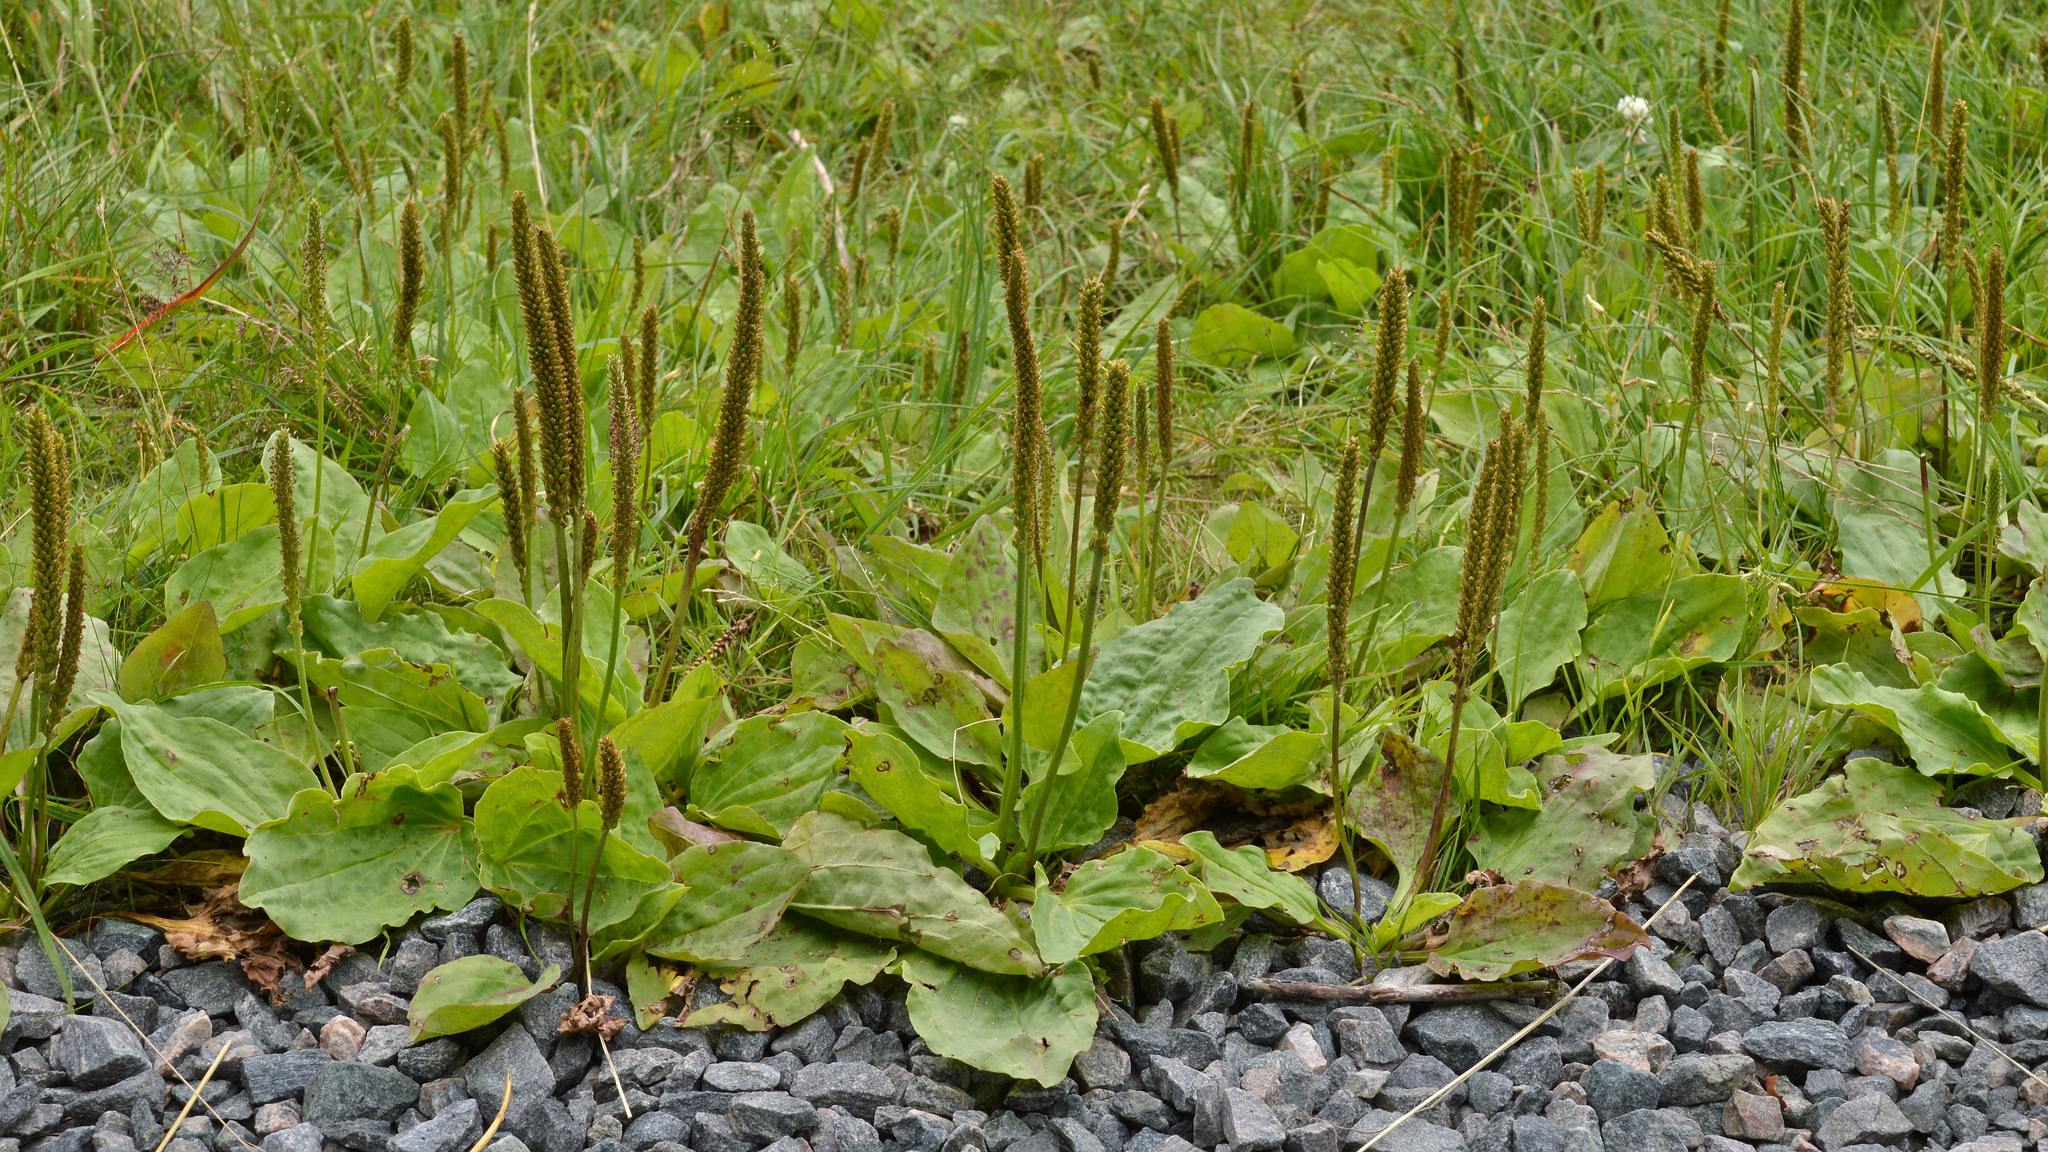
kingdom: Plantae
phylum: Tracheophyta
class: Magnoliopsida
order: Lamiales
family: Plantaginaceae
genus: Plantago
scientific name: Plantago major
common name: Common plantain
